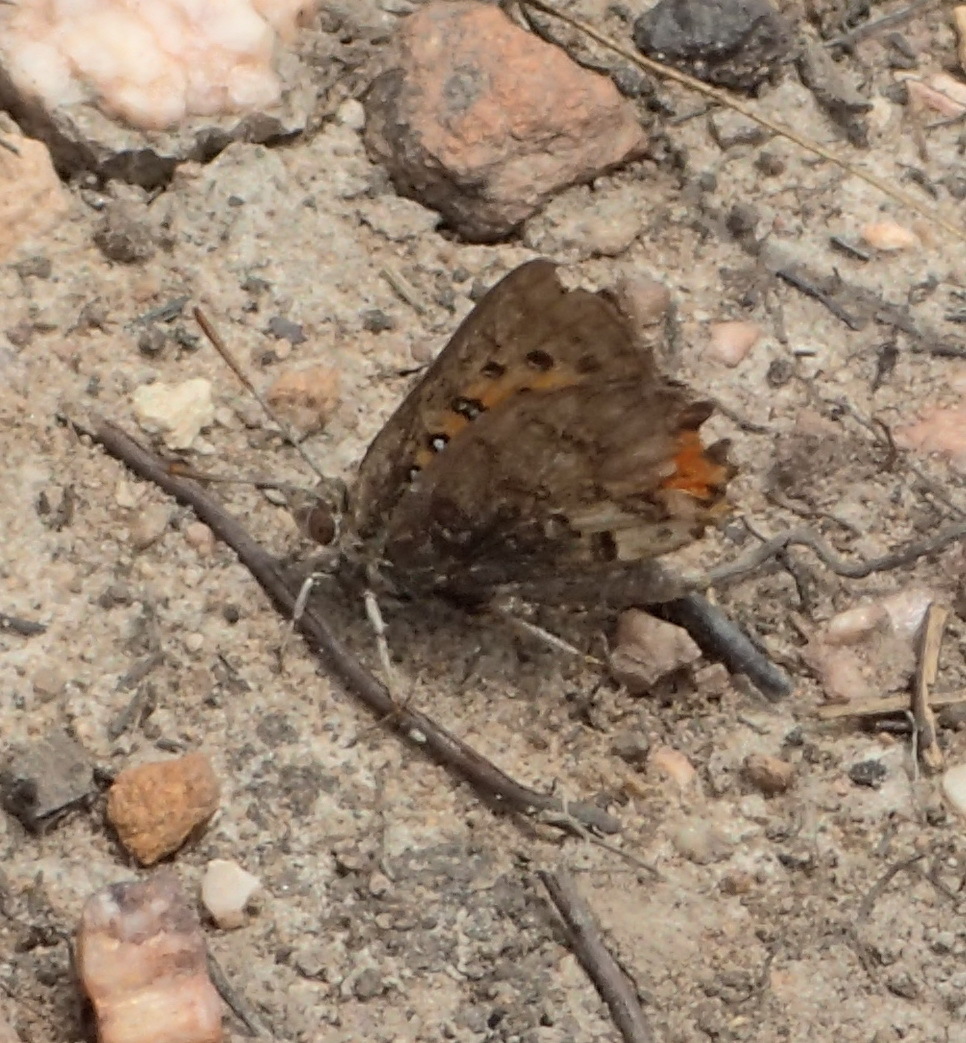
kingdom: Animalia
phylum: Arthropoda
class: Insecta
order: Lepidoptera
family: Lycaenidae
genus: Aloeides
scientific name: Aloeides pierus
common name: Dull copper
